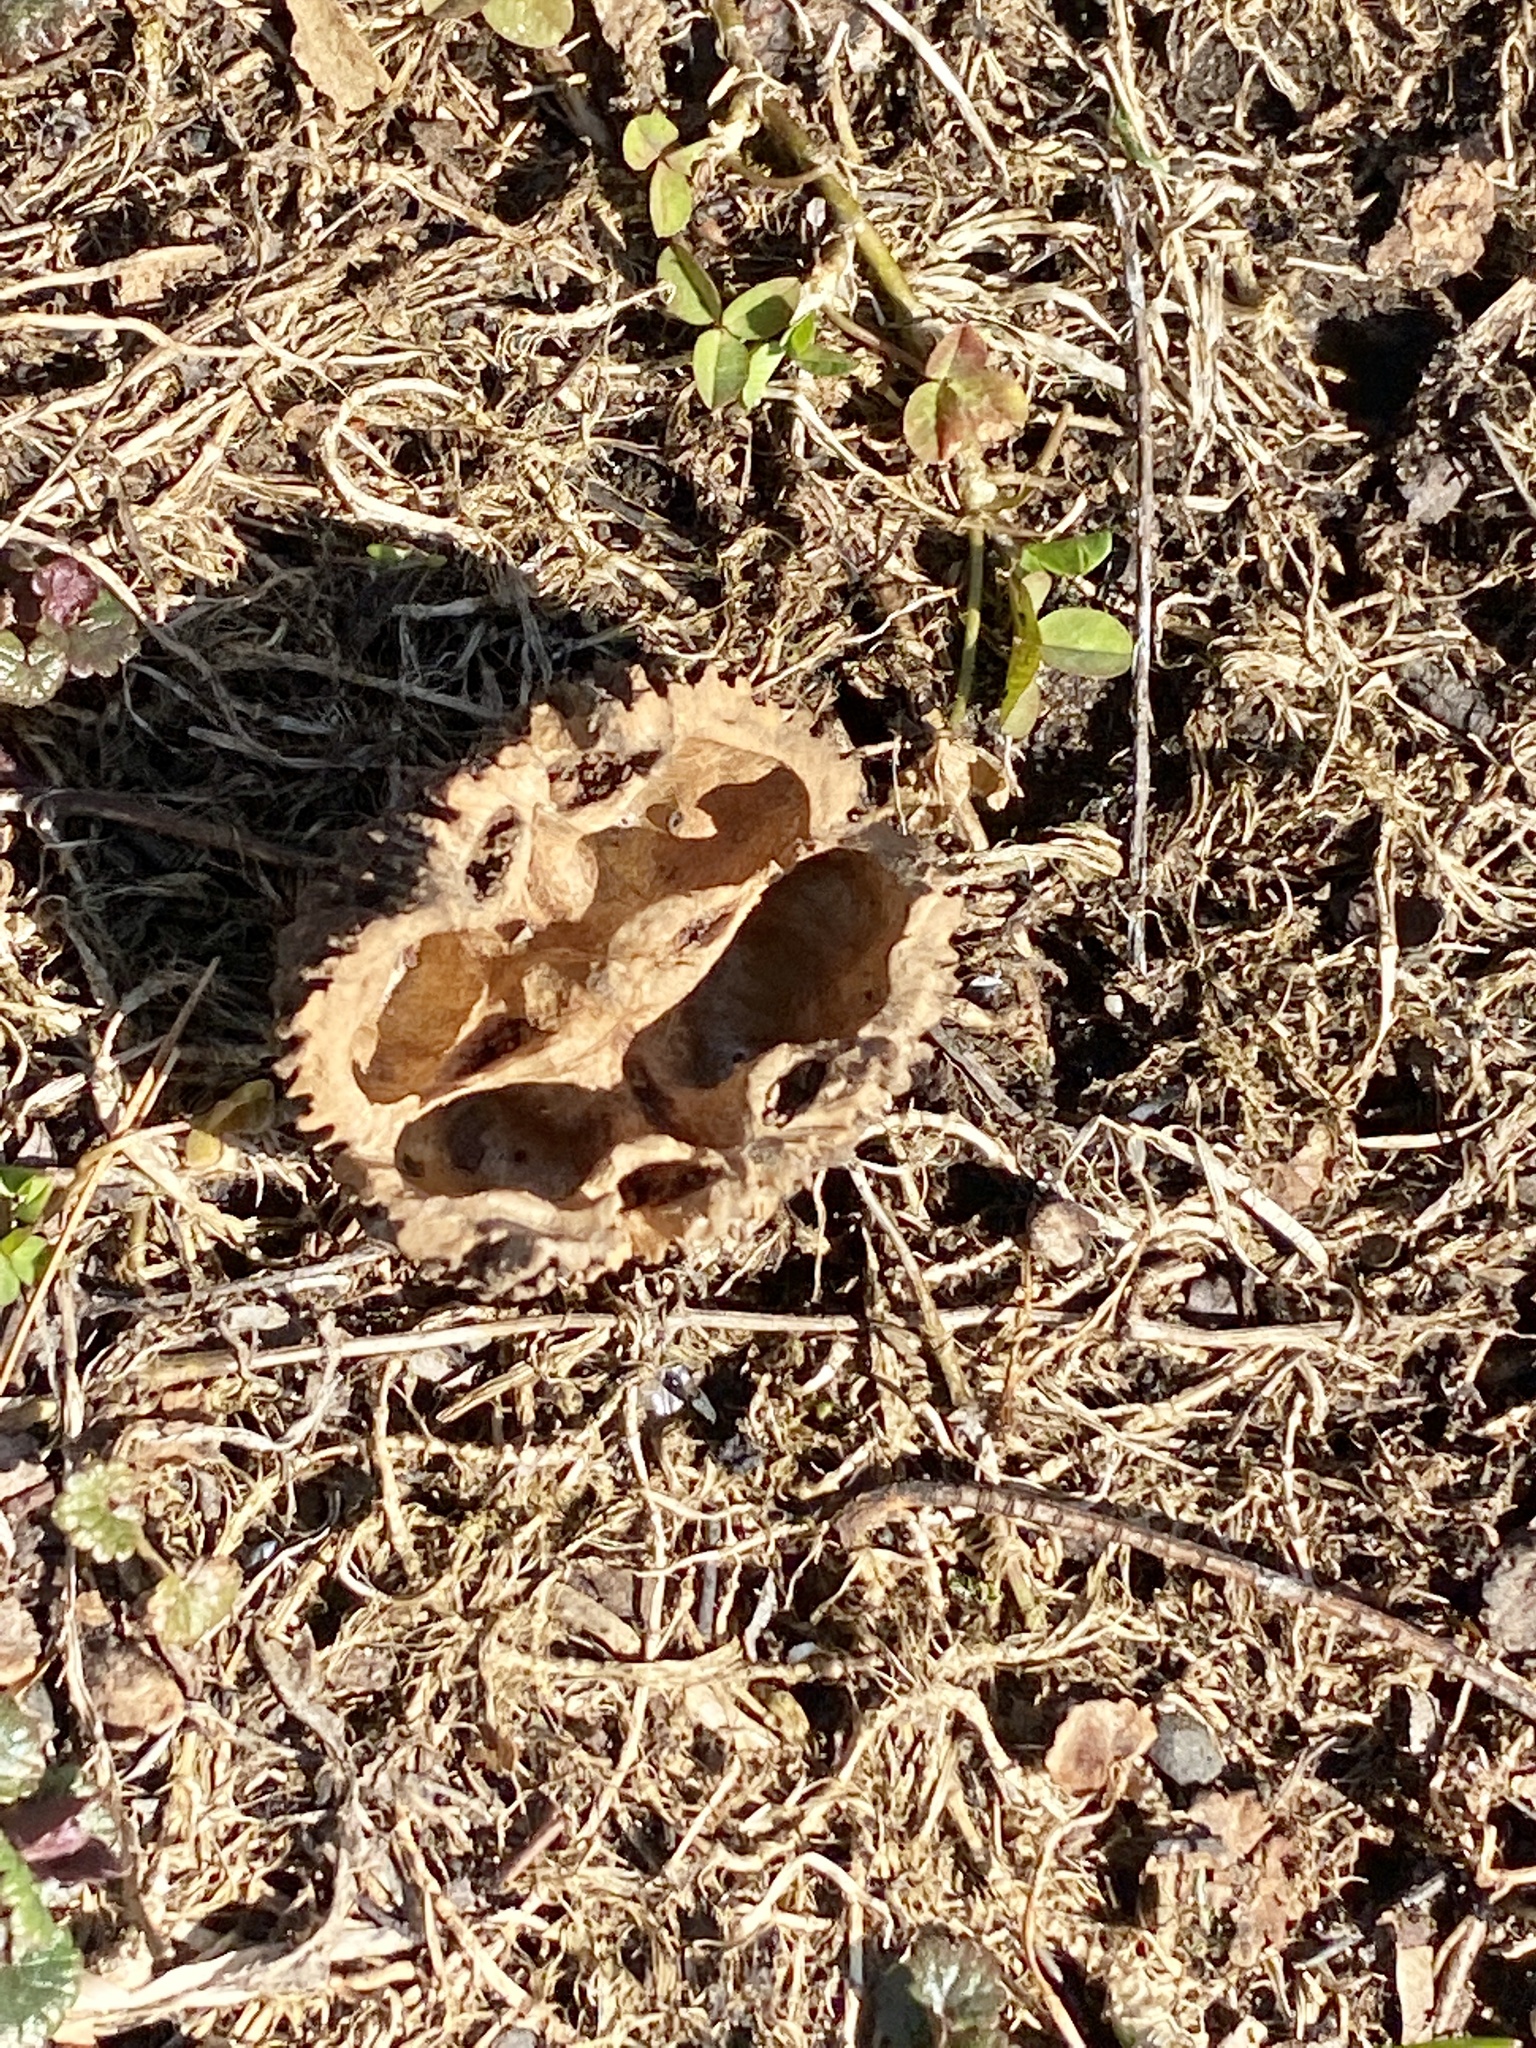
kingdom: Plantae
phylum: Tracheophyta
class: Magnoliopsida
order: Fagales
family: Juglandaceae
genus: Juglans
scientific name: Juglans nigra
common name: Black walnut
